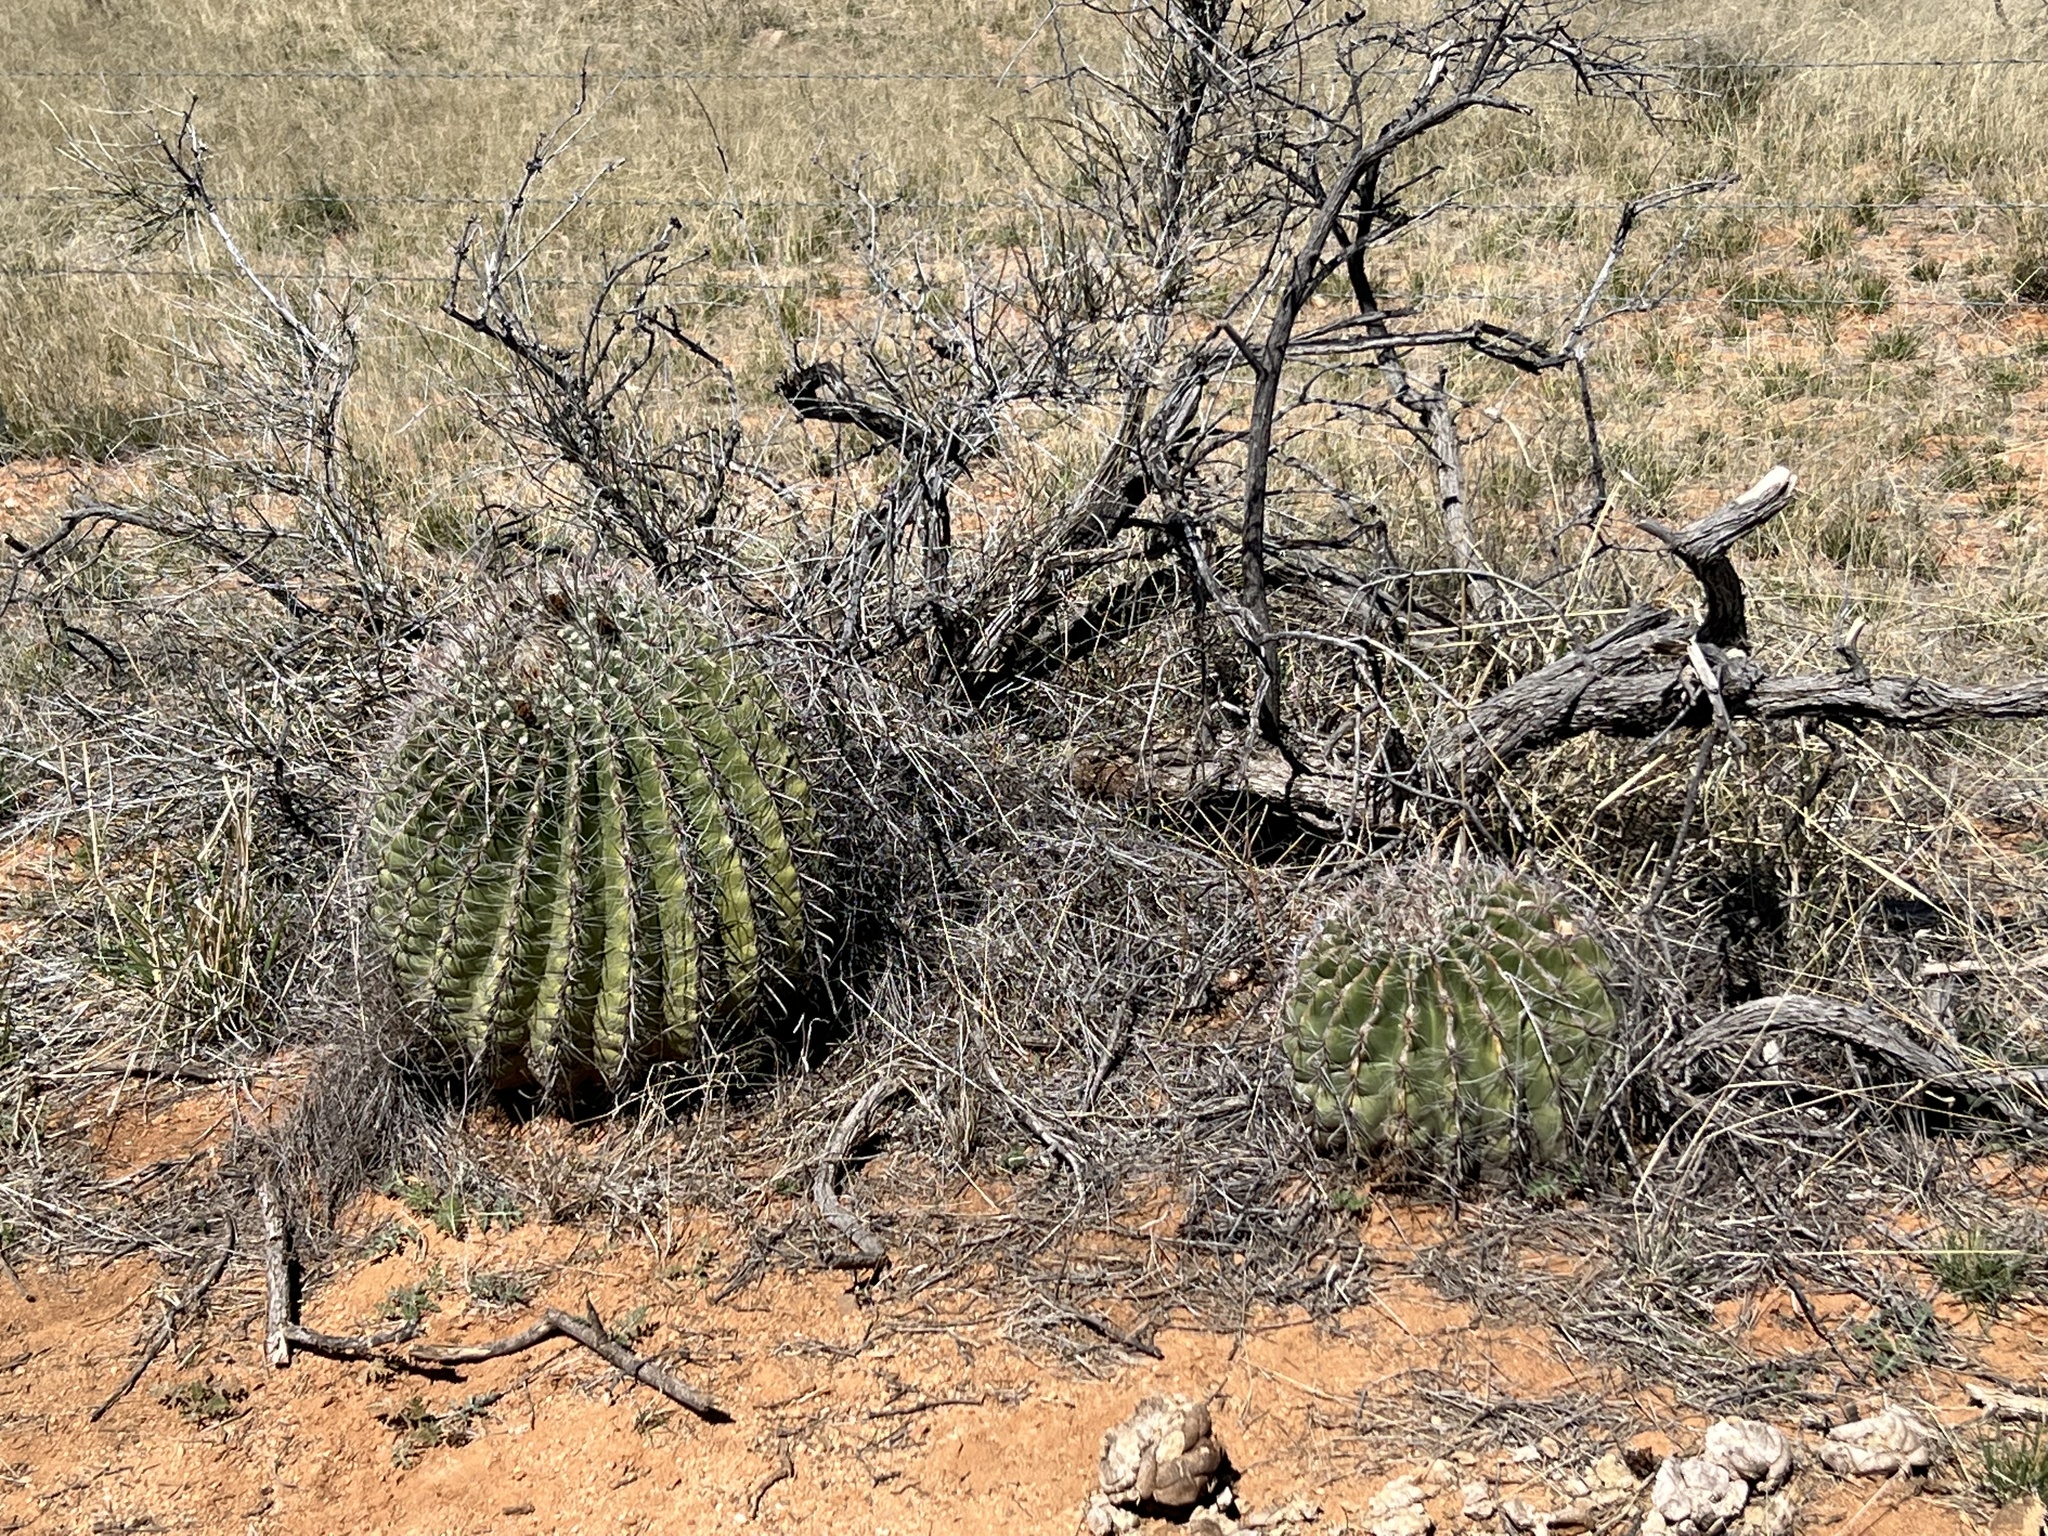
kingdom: Plantae
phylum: Tracheophyta
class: Magnoliopsida
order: Caryophyllales
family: Cactaceae
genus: Ferocactus
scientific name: Ferocactus wislizeni
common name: Candy barrel cactus
